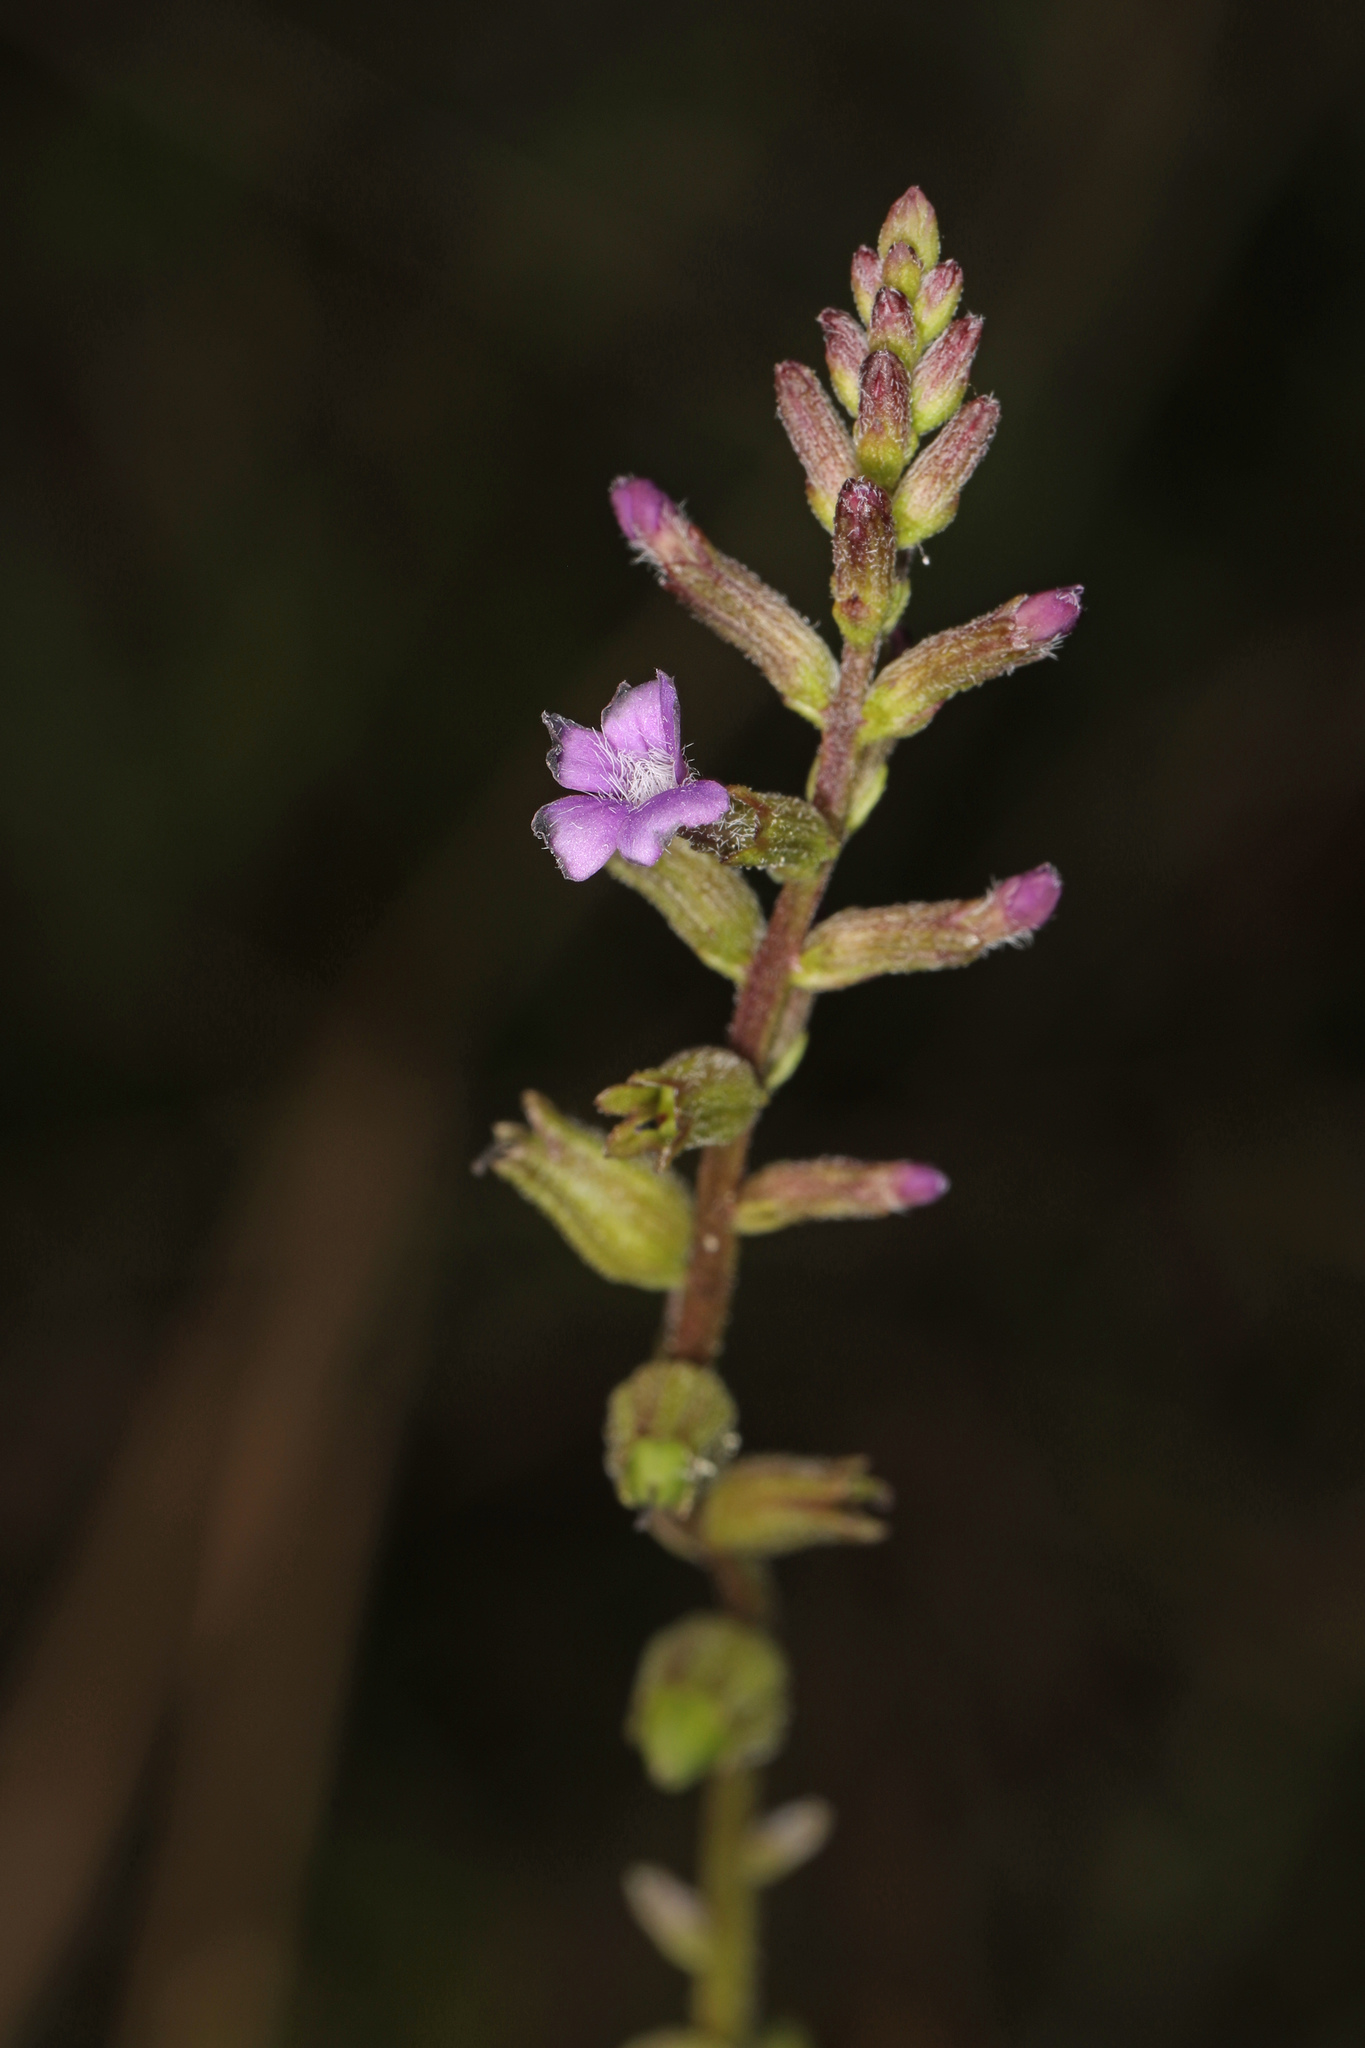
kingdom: Plantae
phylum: Tracheophyta
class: Magnoliopsida
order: Lamiales
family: Orobanchaceae
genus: Buchnera
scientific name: Buchnera floridana
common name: Florida bluehearts
